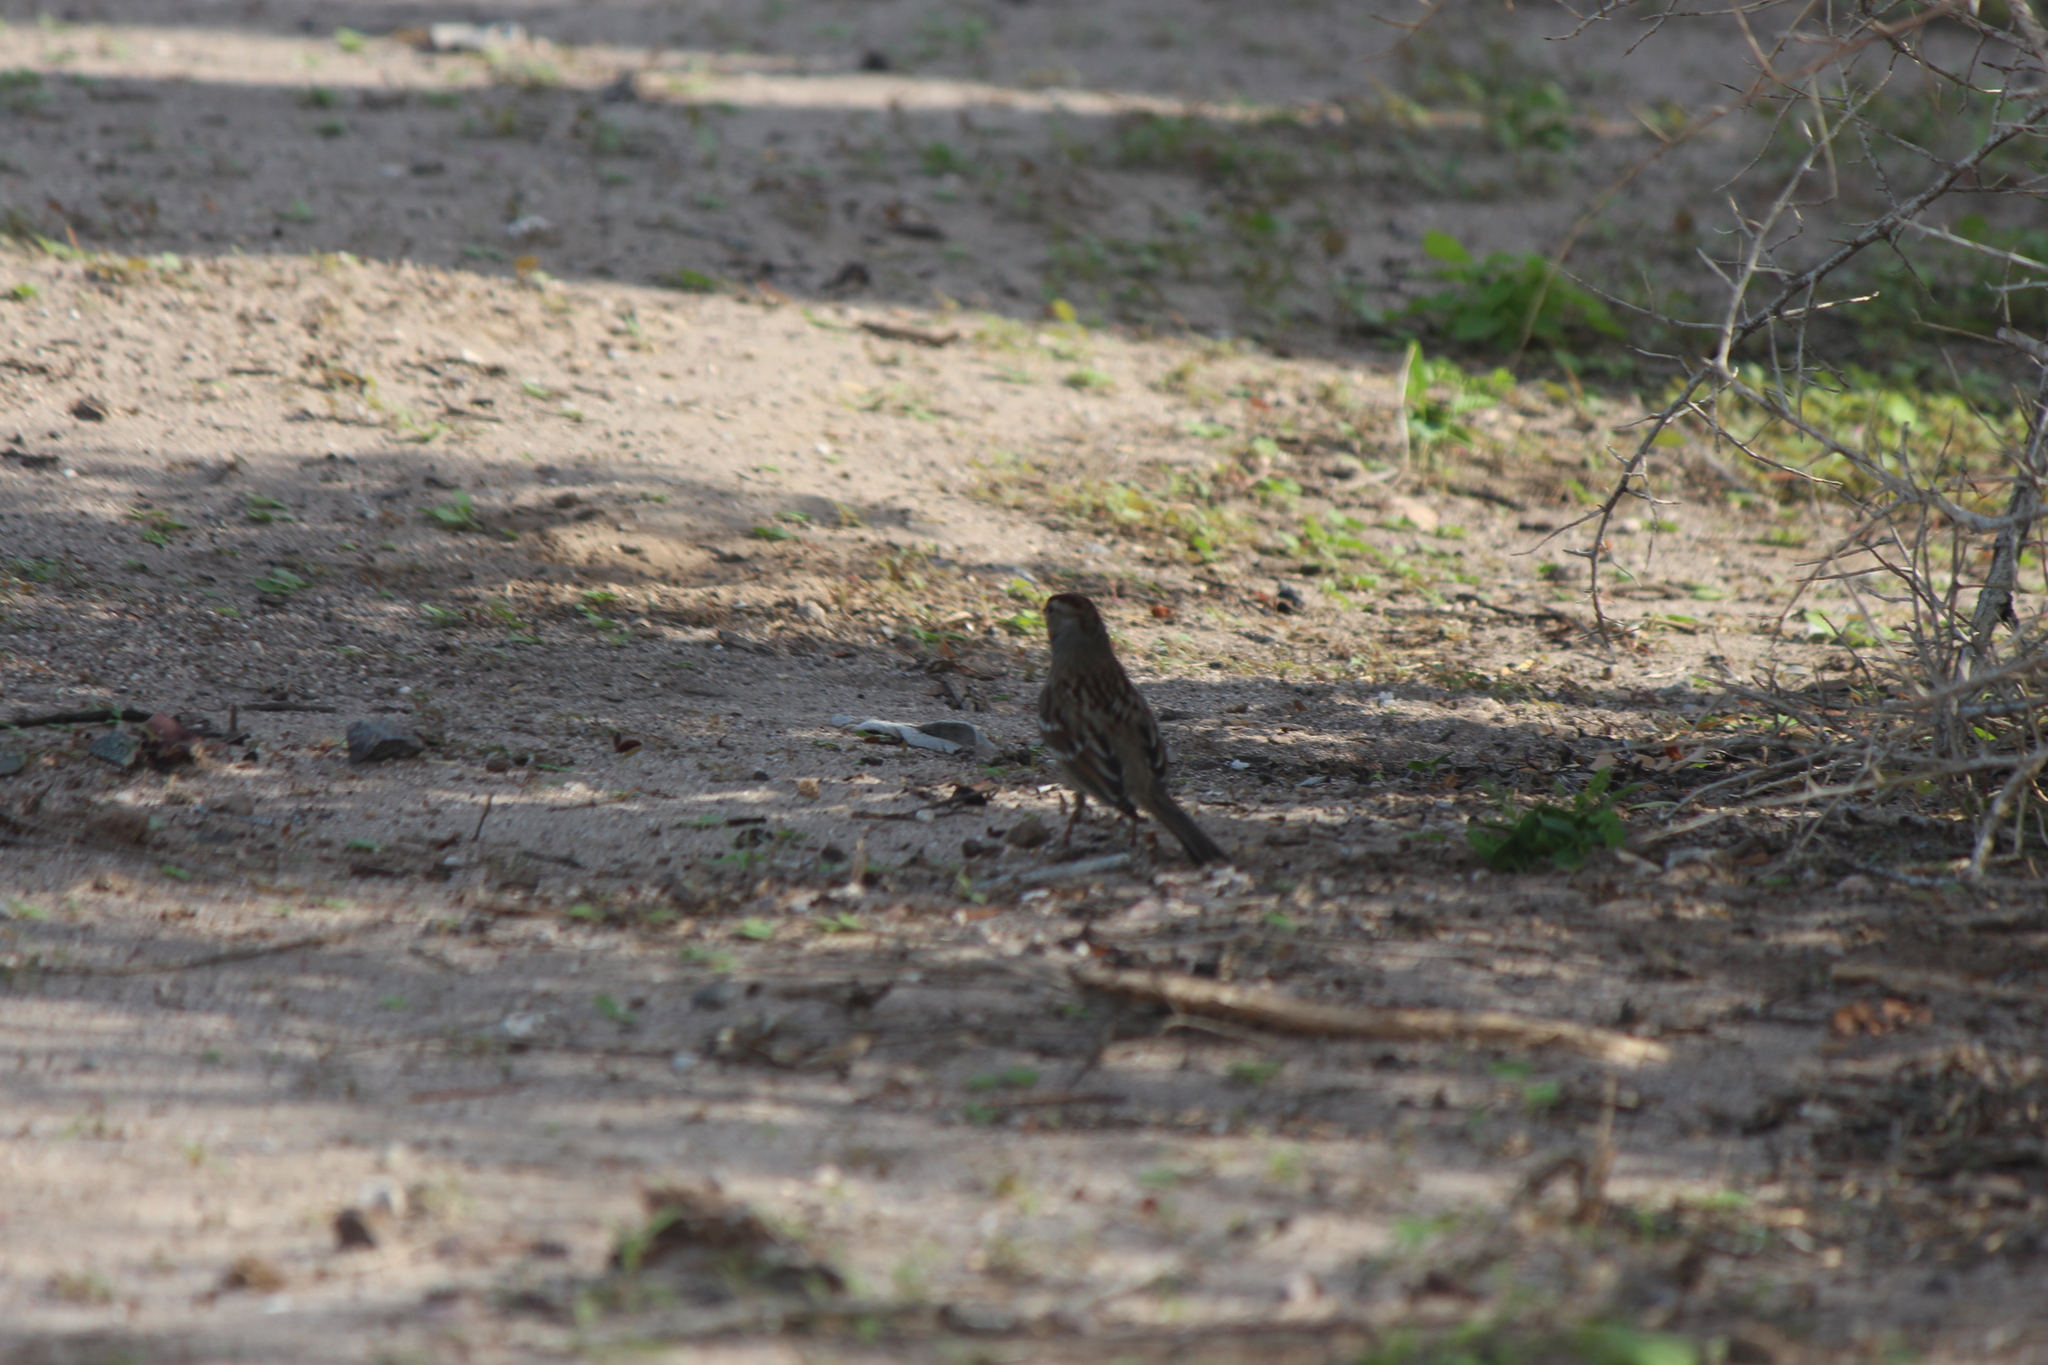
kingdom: Animalia
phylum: Chordata
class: Aves
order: Passeriformes
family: Passerellidae
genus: Zonotrichia
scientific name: Zonotrichia leucophrys
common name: White-crowned sparrow
